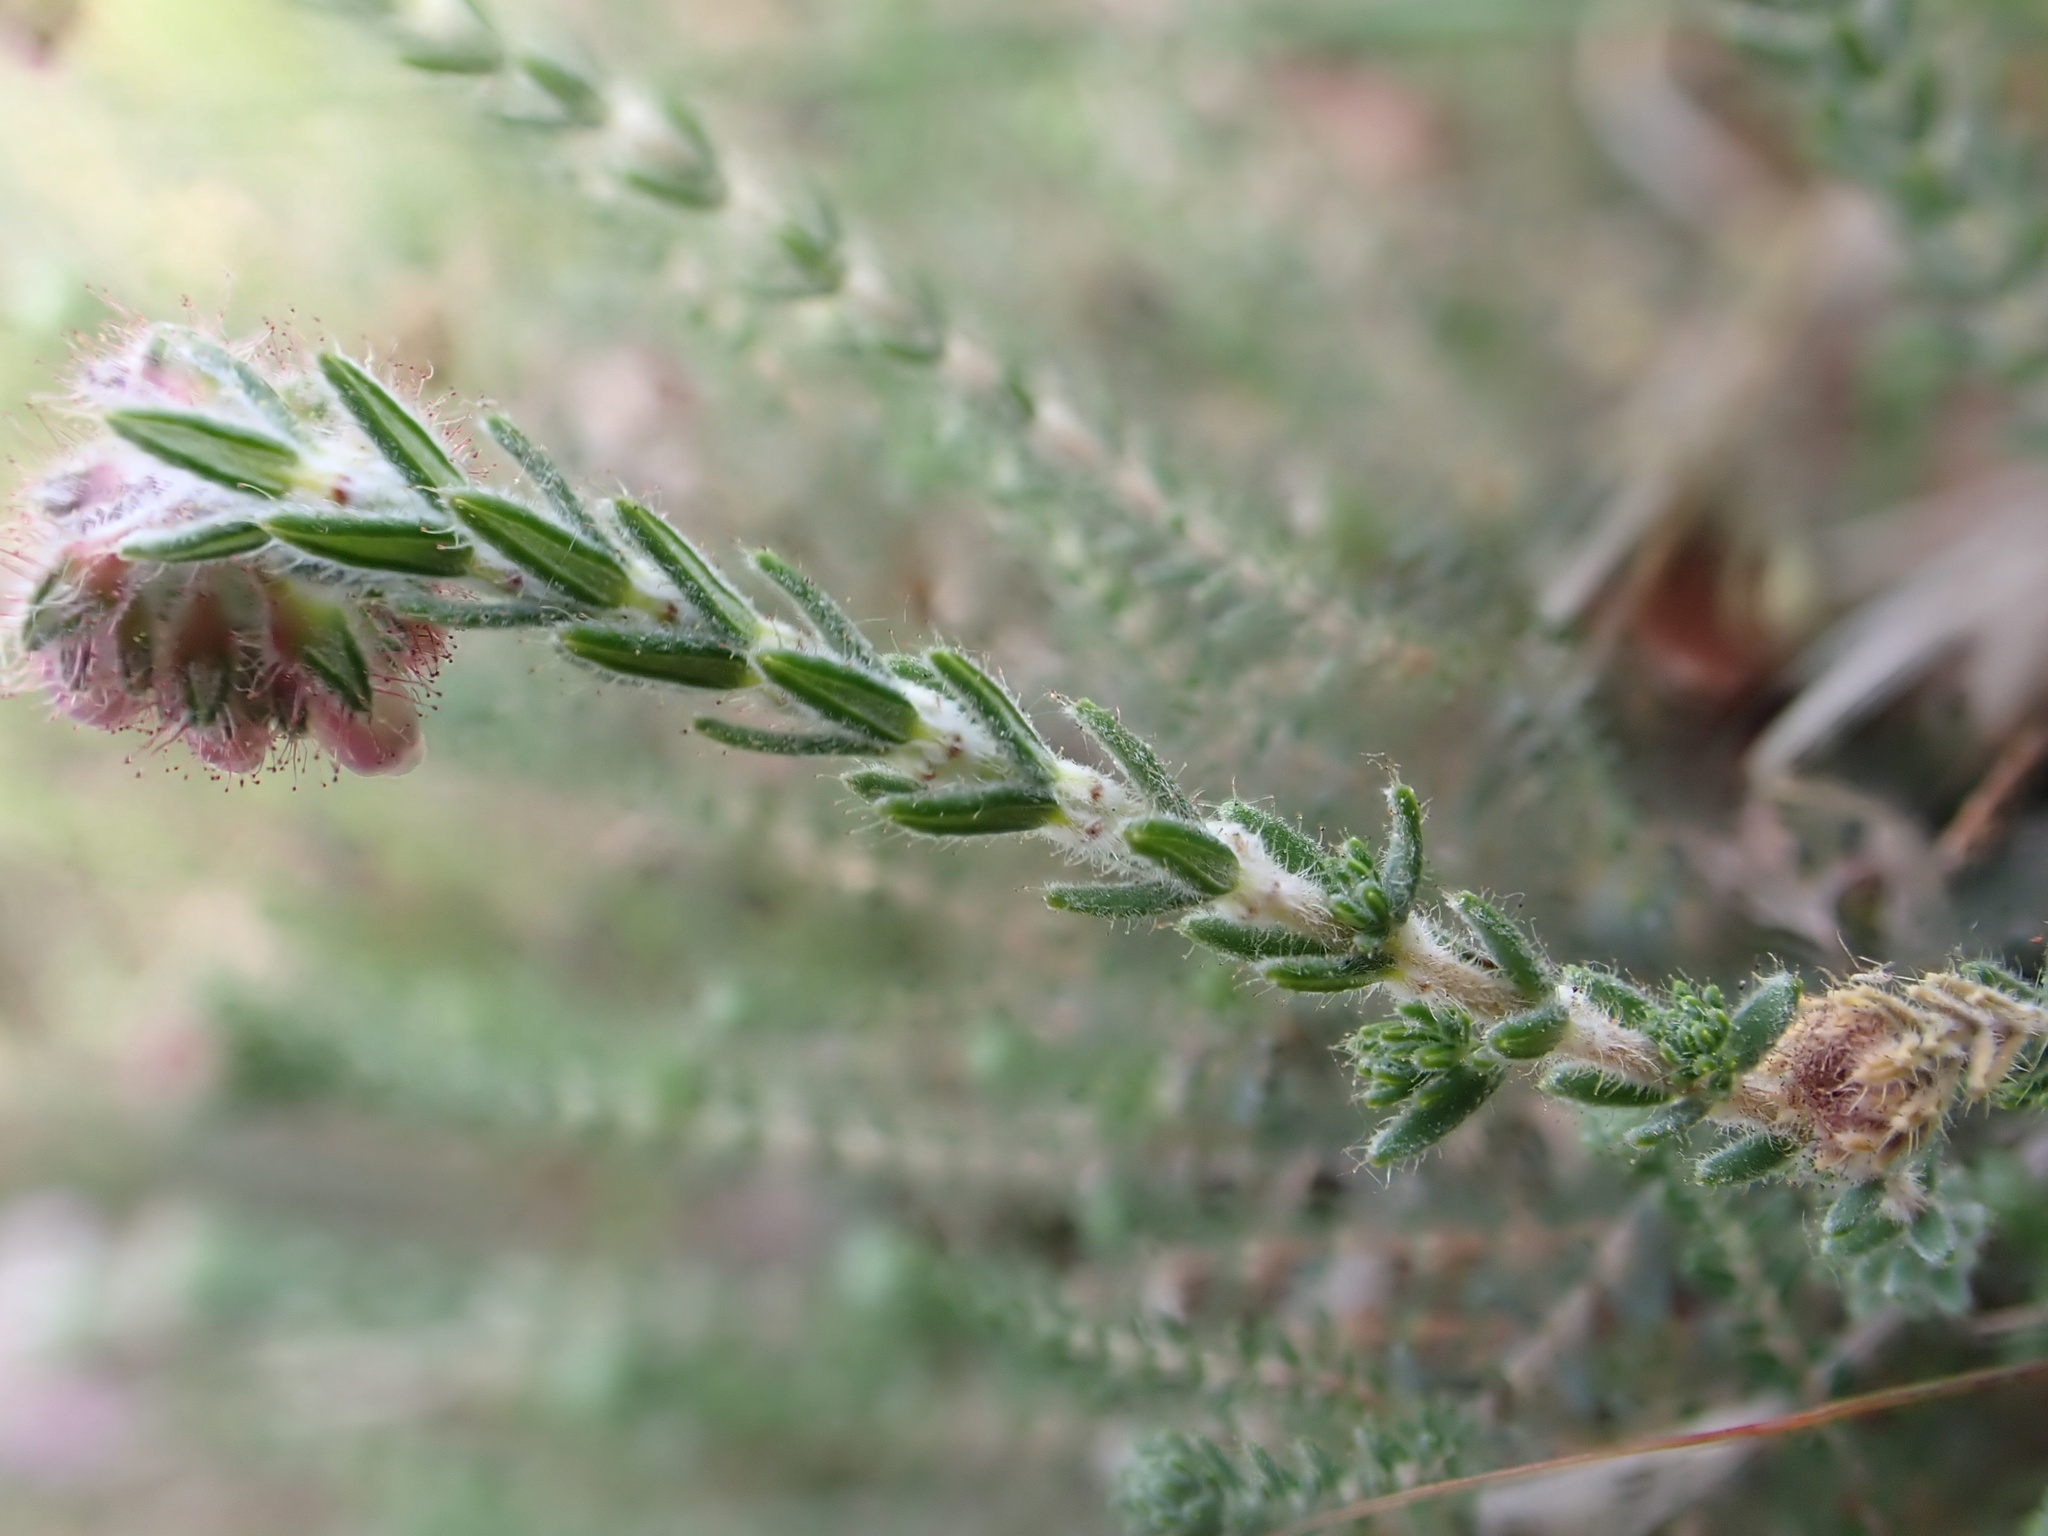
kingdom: Plantae
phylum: Tracheophyta
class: Magnoliopsida
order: Ericales
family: Ericaceae
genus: Erica
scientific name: Erica tetralix
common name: Cross-leaved heath
